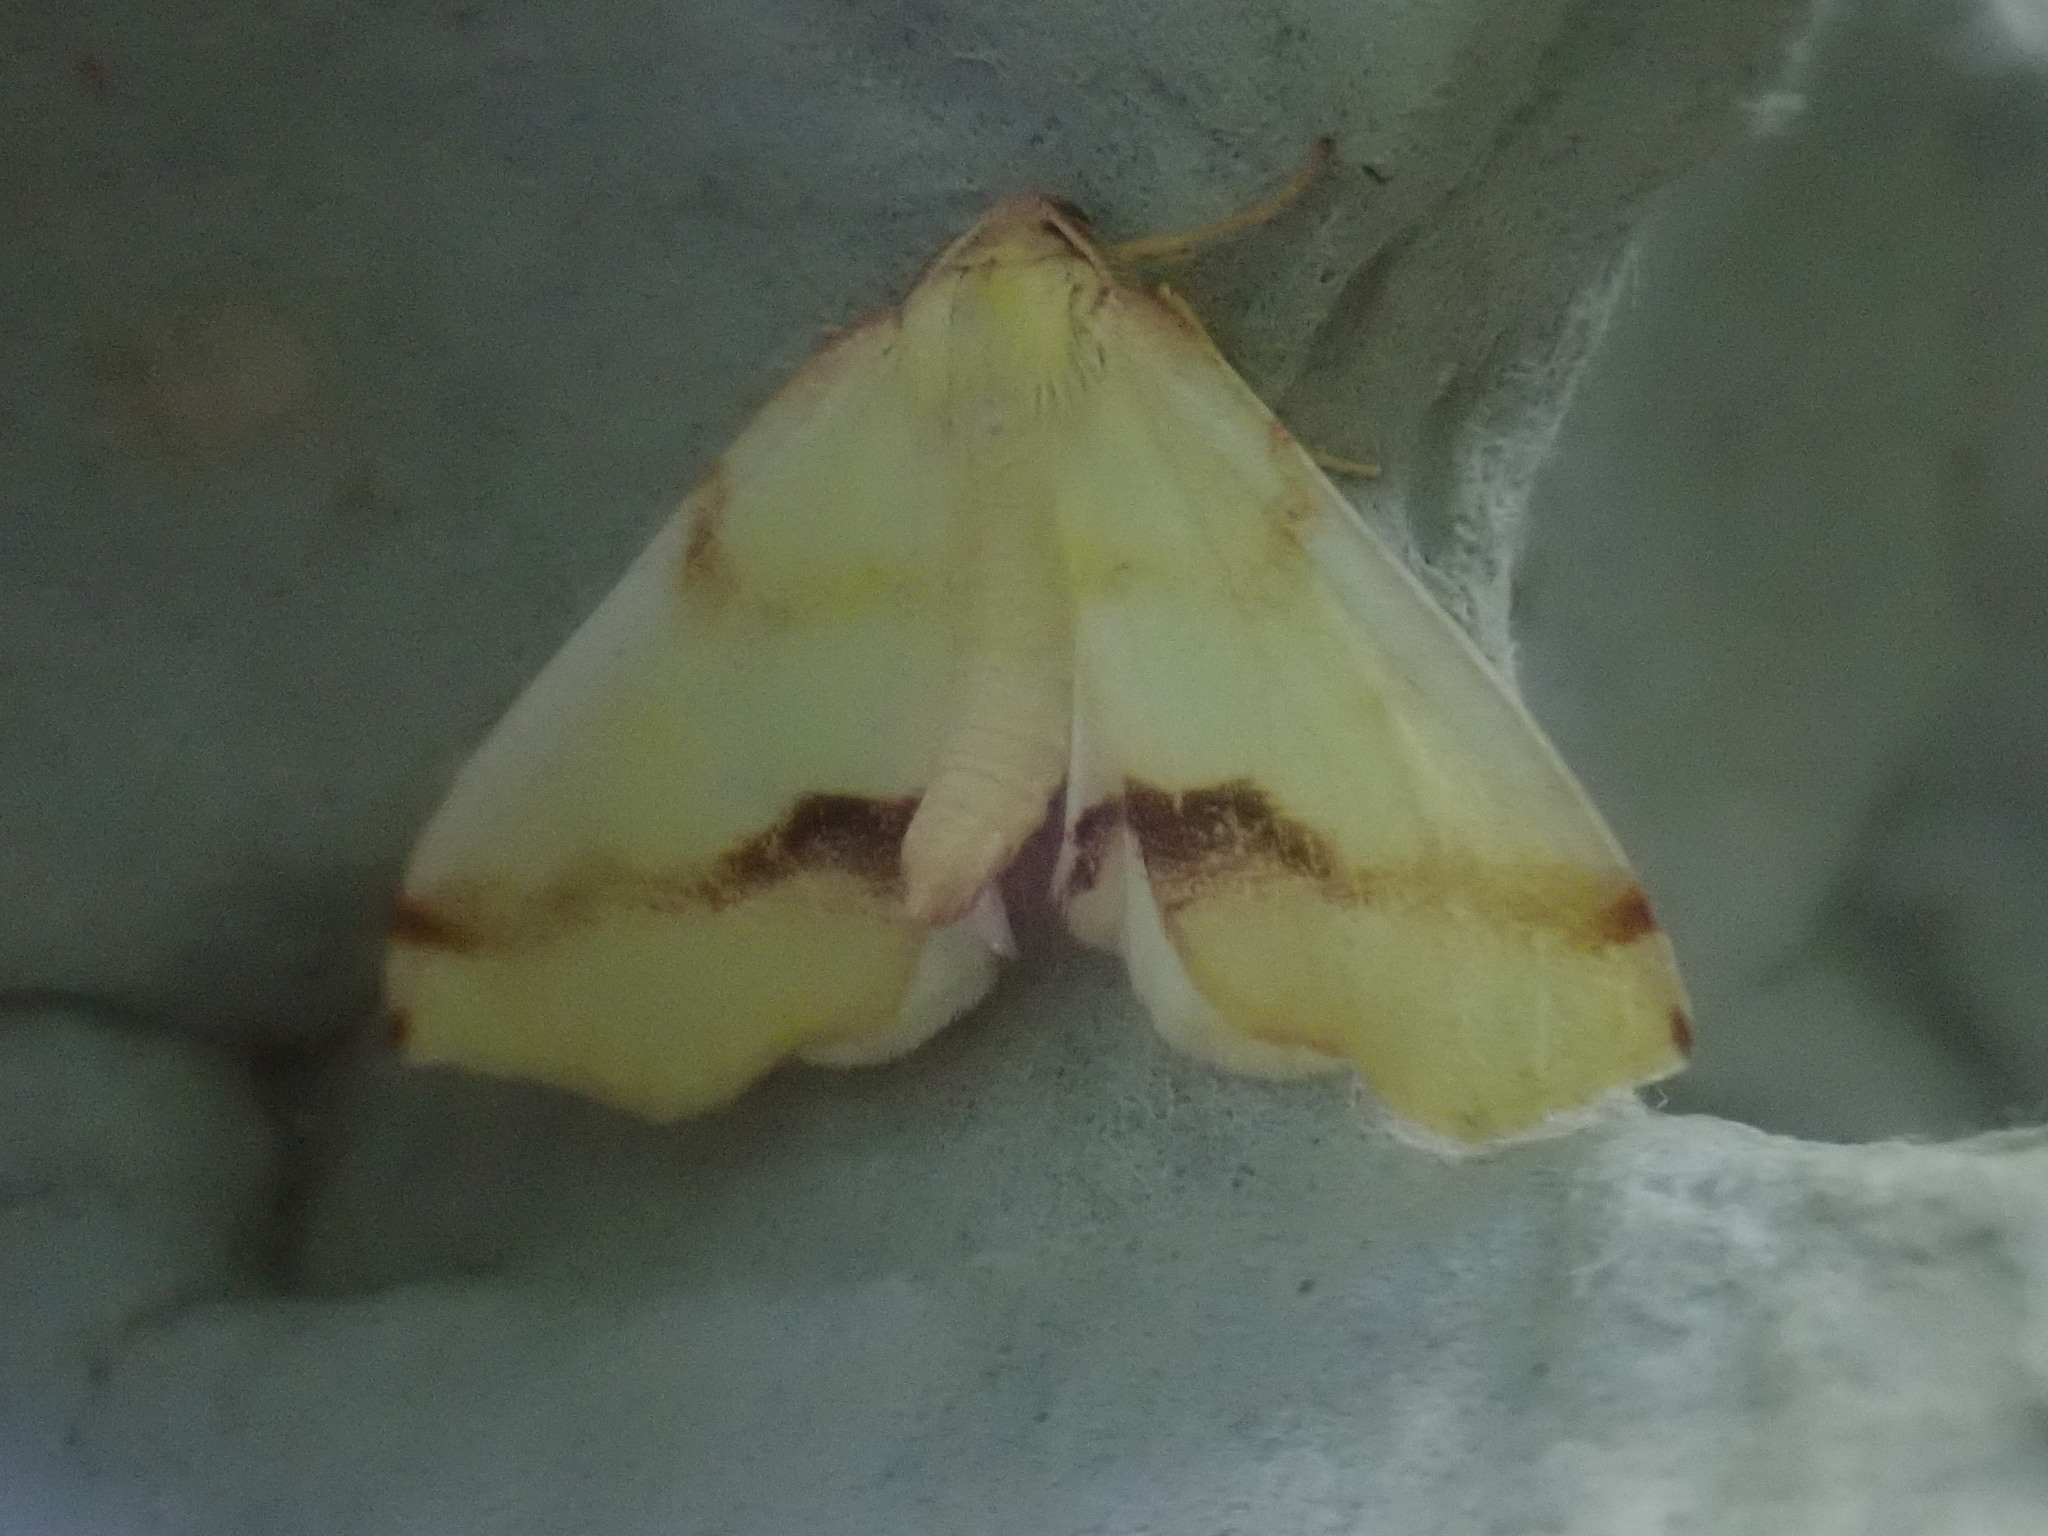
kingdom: Animalia
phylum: Arthropoda
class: Insecta
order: Lepidoptera
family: Geometridae
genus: Plagodis
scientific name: Plagodis serinaria
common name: Lemon plagodis
